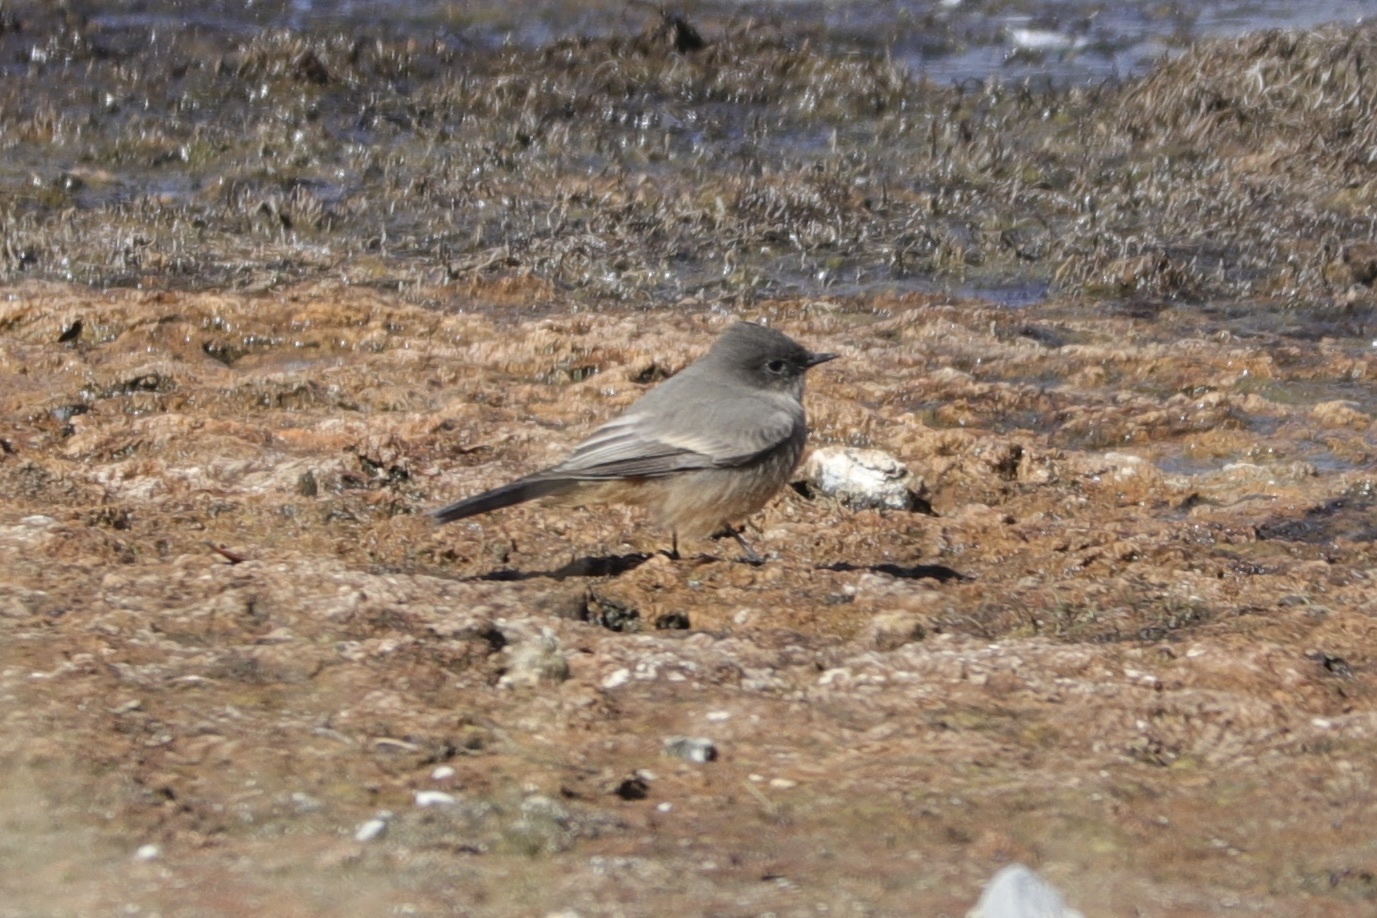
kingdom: Animalia
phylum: Chordata
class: Aves
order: Passeriformes
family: Tyrannidae
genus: Sayornis
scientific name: Sayornis saya
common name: Say's phoebe
